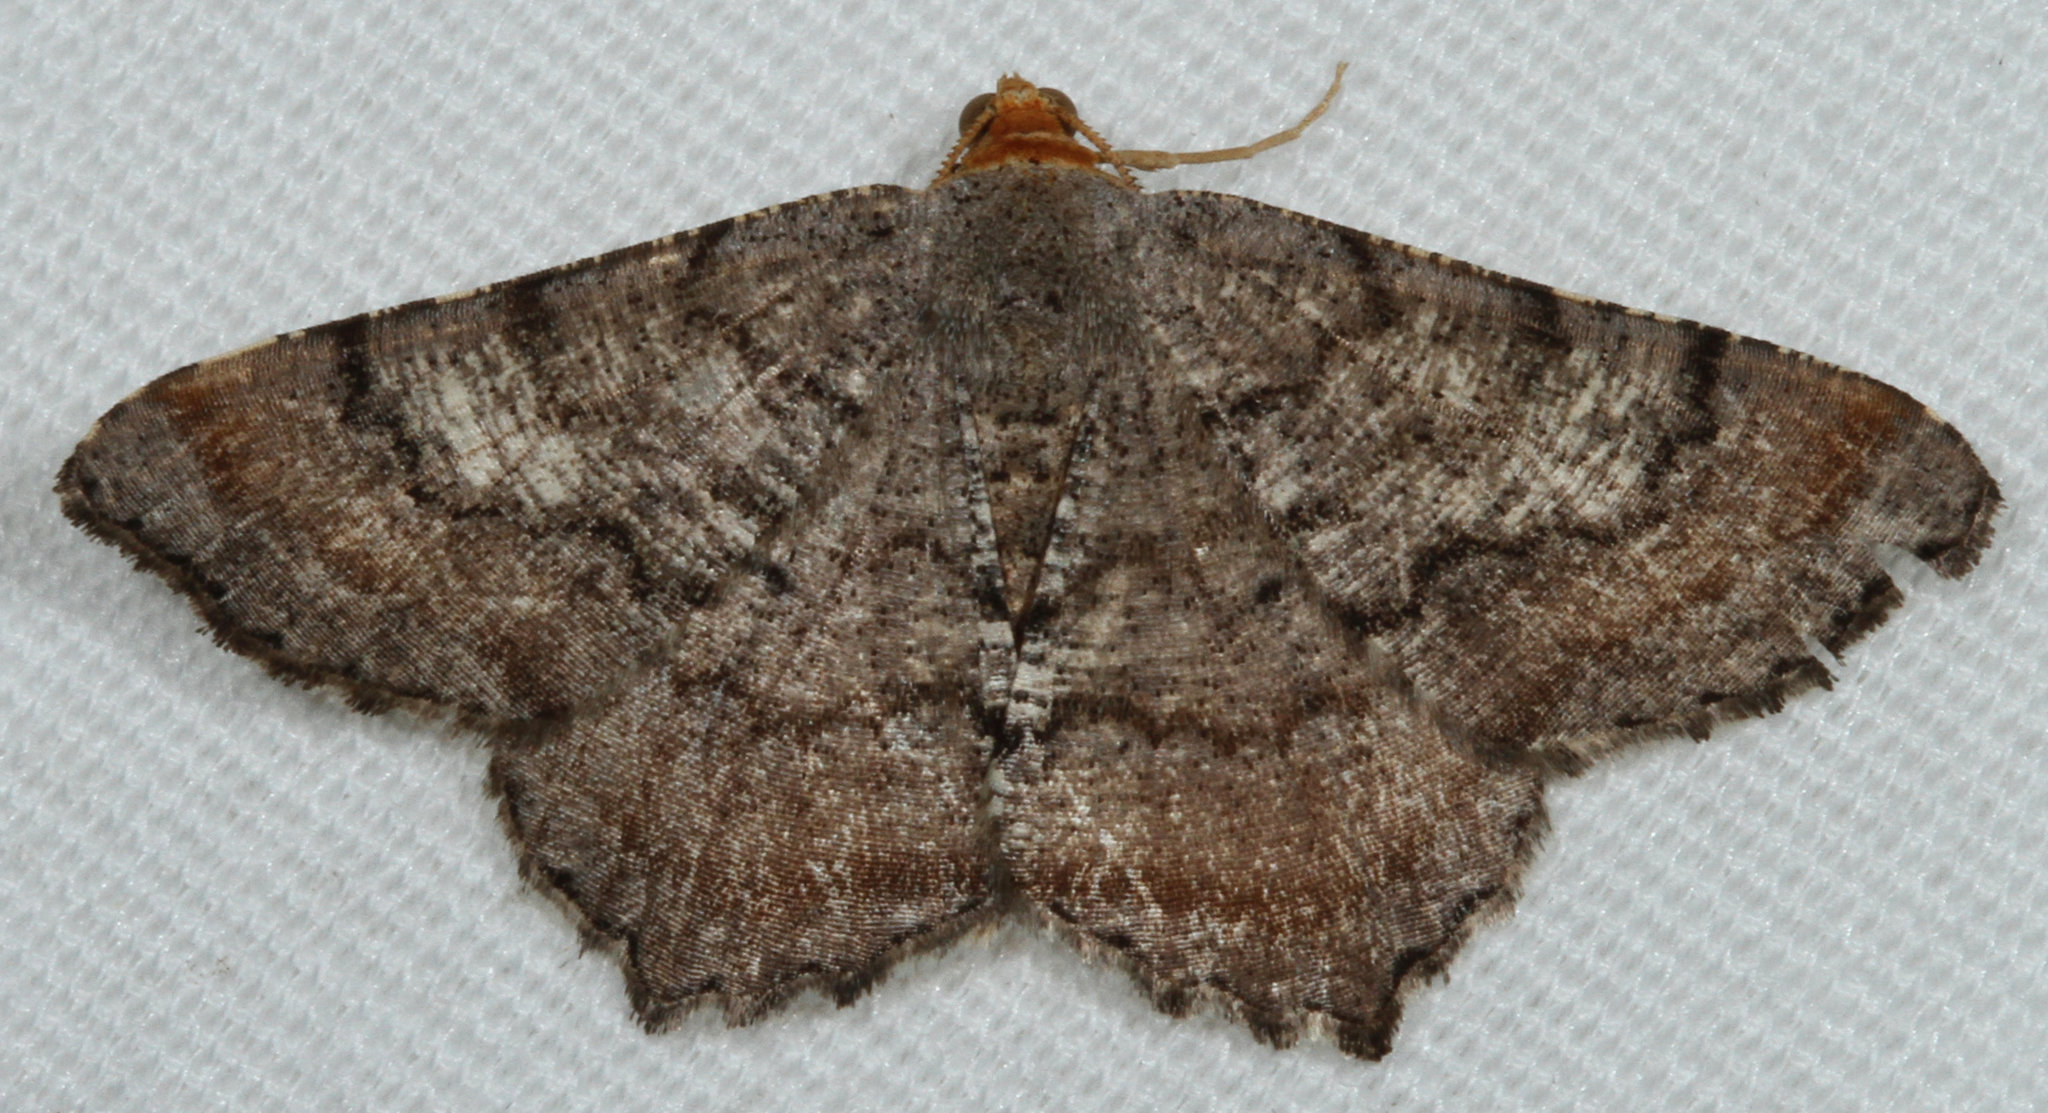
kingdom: Animalia
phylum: Arthropoda
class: Insecta
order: Lepidoptera
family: Geometridae
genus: Macaria
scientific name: Macaria distribuaria
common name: Southern chocolate angle
